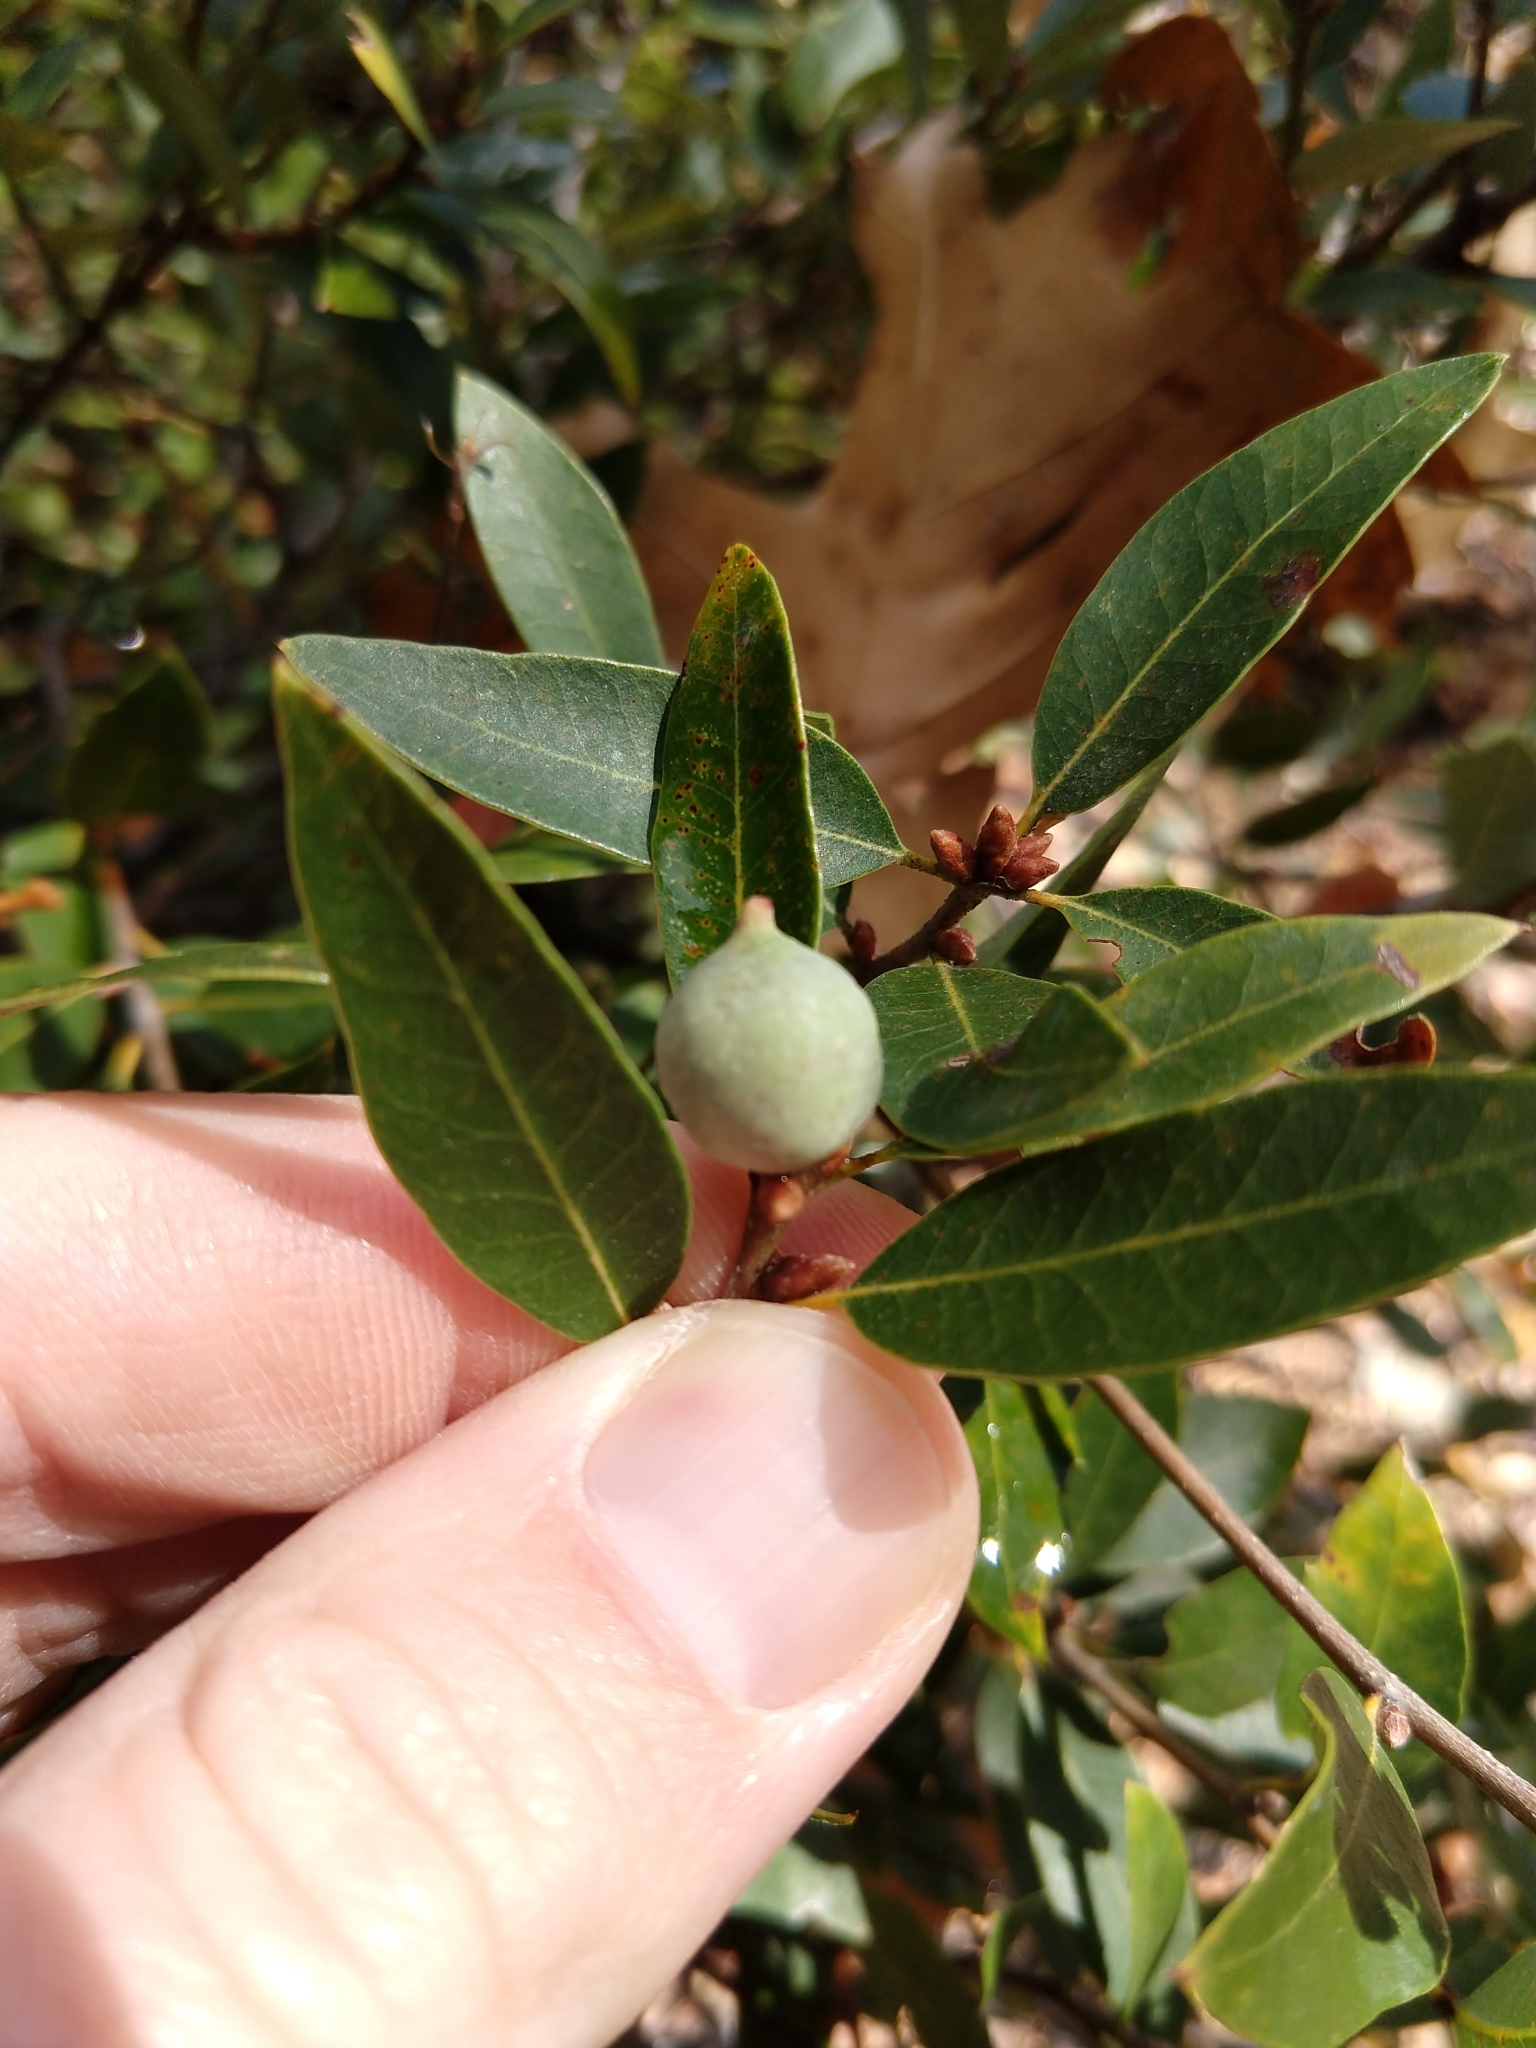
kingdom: Animalia
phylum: Arthropoda
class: Insecta
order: Hymenoptera
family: Cynipidae
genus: Heteroecus
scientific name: Heteroecus pacificus
